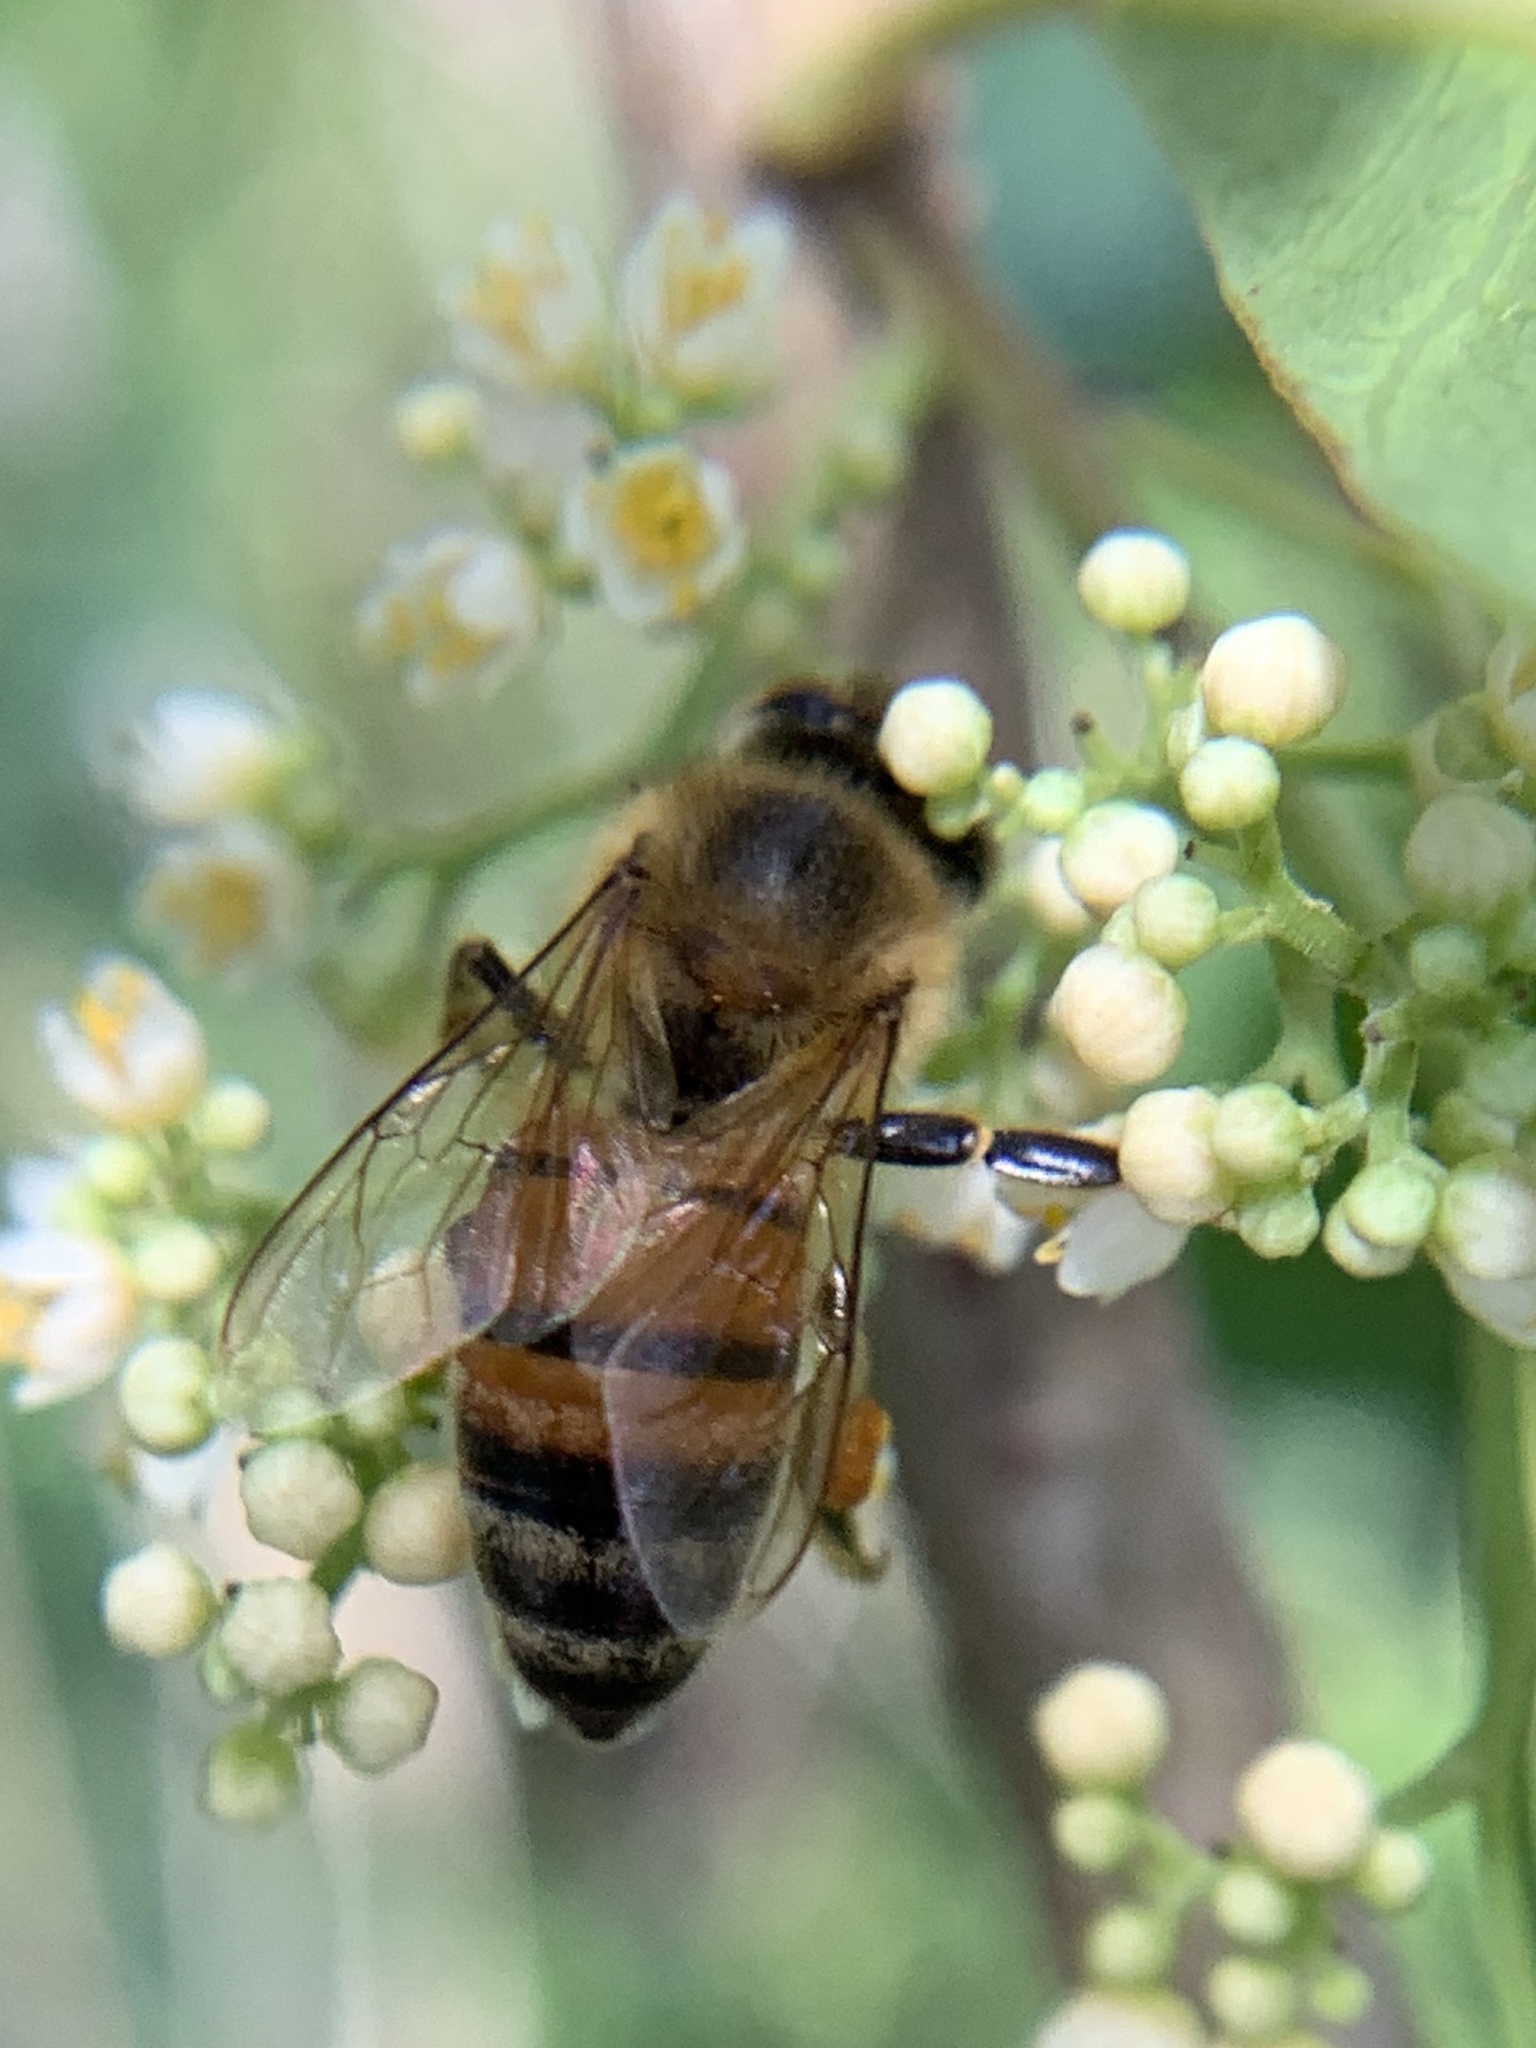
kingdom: Animalia
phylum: Arthropoda
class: Insecta
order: Hymenoptera
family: Apidae
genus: Apis
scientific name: Apis mellifera
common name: Honey bee
